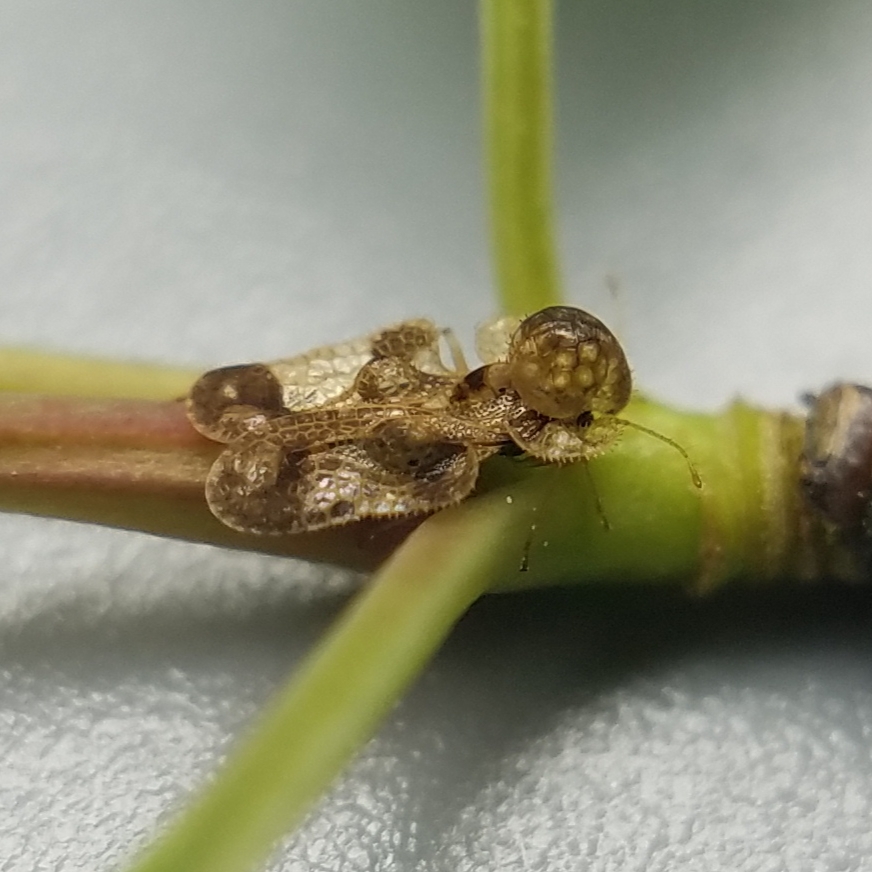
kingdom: Animalia
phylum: Arthropoda
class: Insecta
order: Hemiptera
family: Tingidae
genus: Corythucha
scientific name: Corythucha associata
